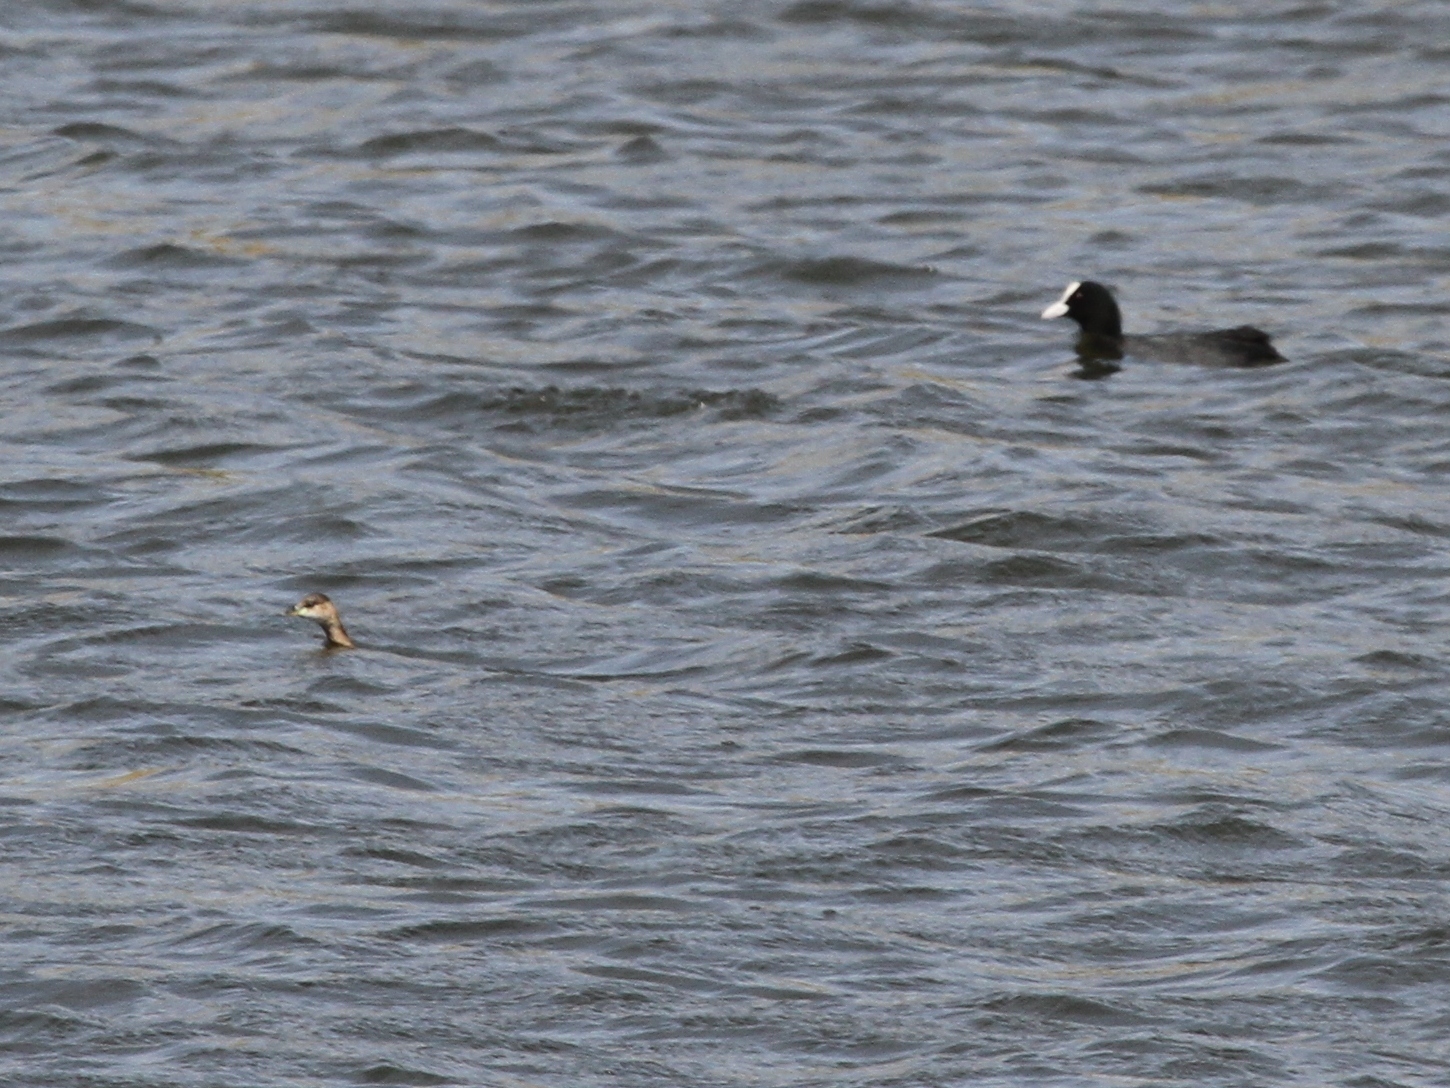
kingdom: Animalia
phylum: Chordata
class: Aves
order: Gruiformes
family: Rallidae
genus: Fulica
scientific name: Fulica atra
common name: Eurasian coot
